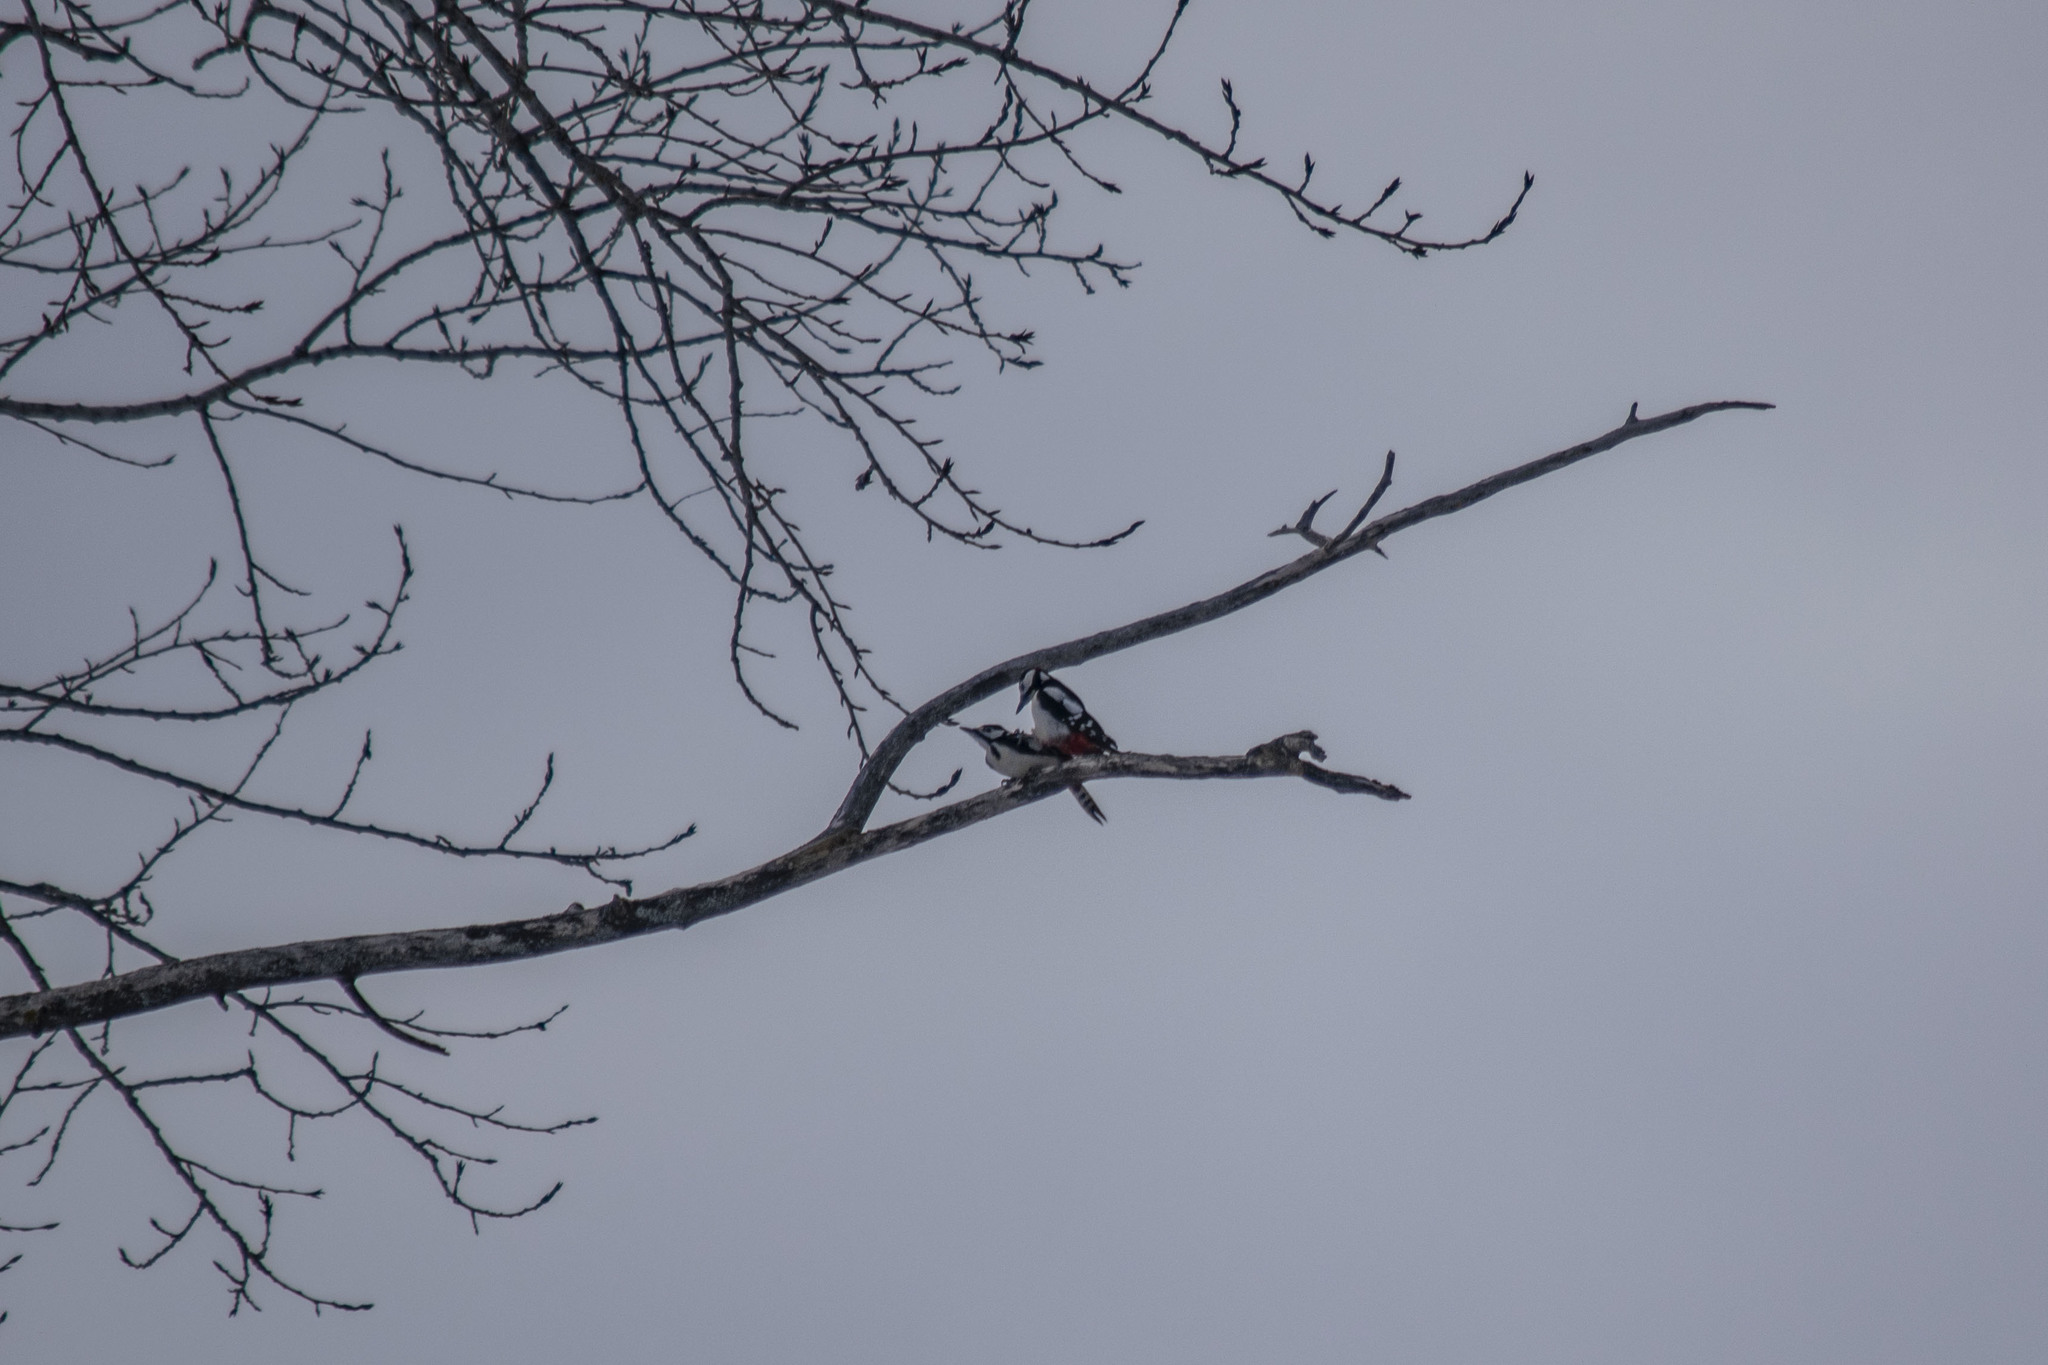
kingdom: Animalia
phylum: Chordata
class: Aves
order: Piciformes
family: Picidae
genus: Dendrocopos
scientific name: Dendrocopos major
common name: Great spotted woodpecker
